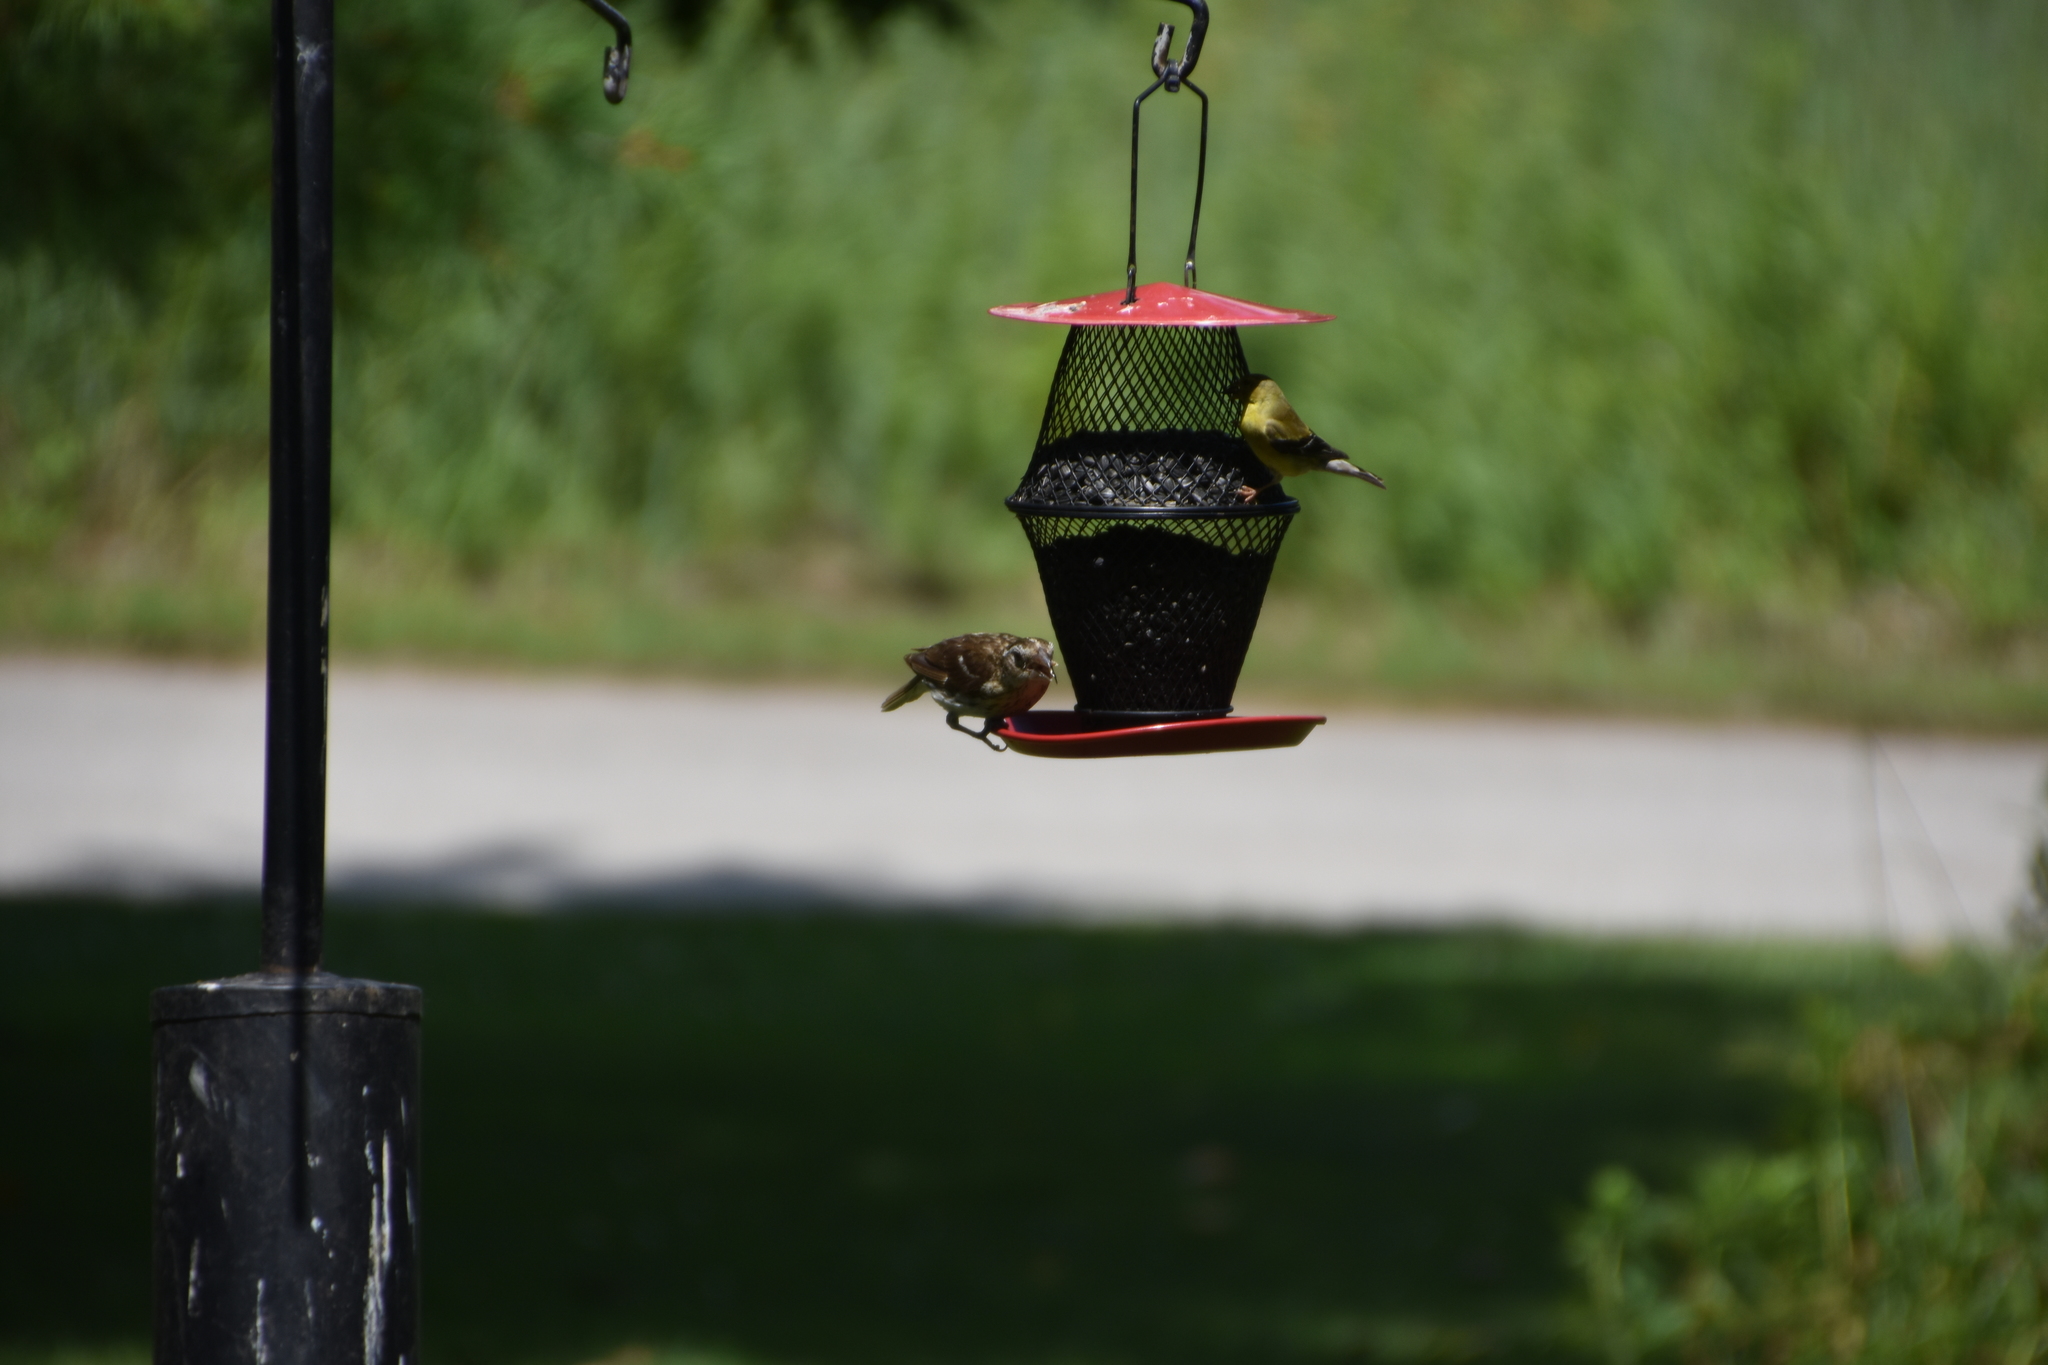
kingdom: Animalia
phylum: Chordata
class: Aves
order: Passeriformes
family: Fringillidae
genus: Spinus
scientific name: Spinus tristis
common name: American goldfinch
